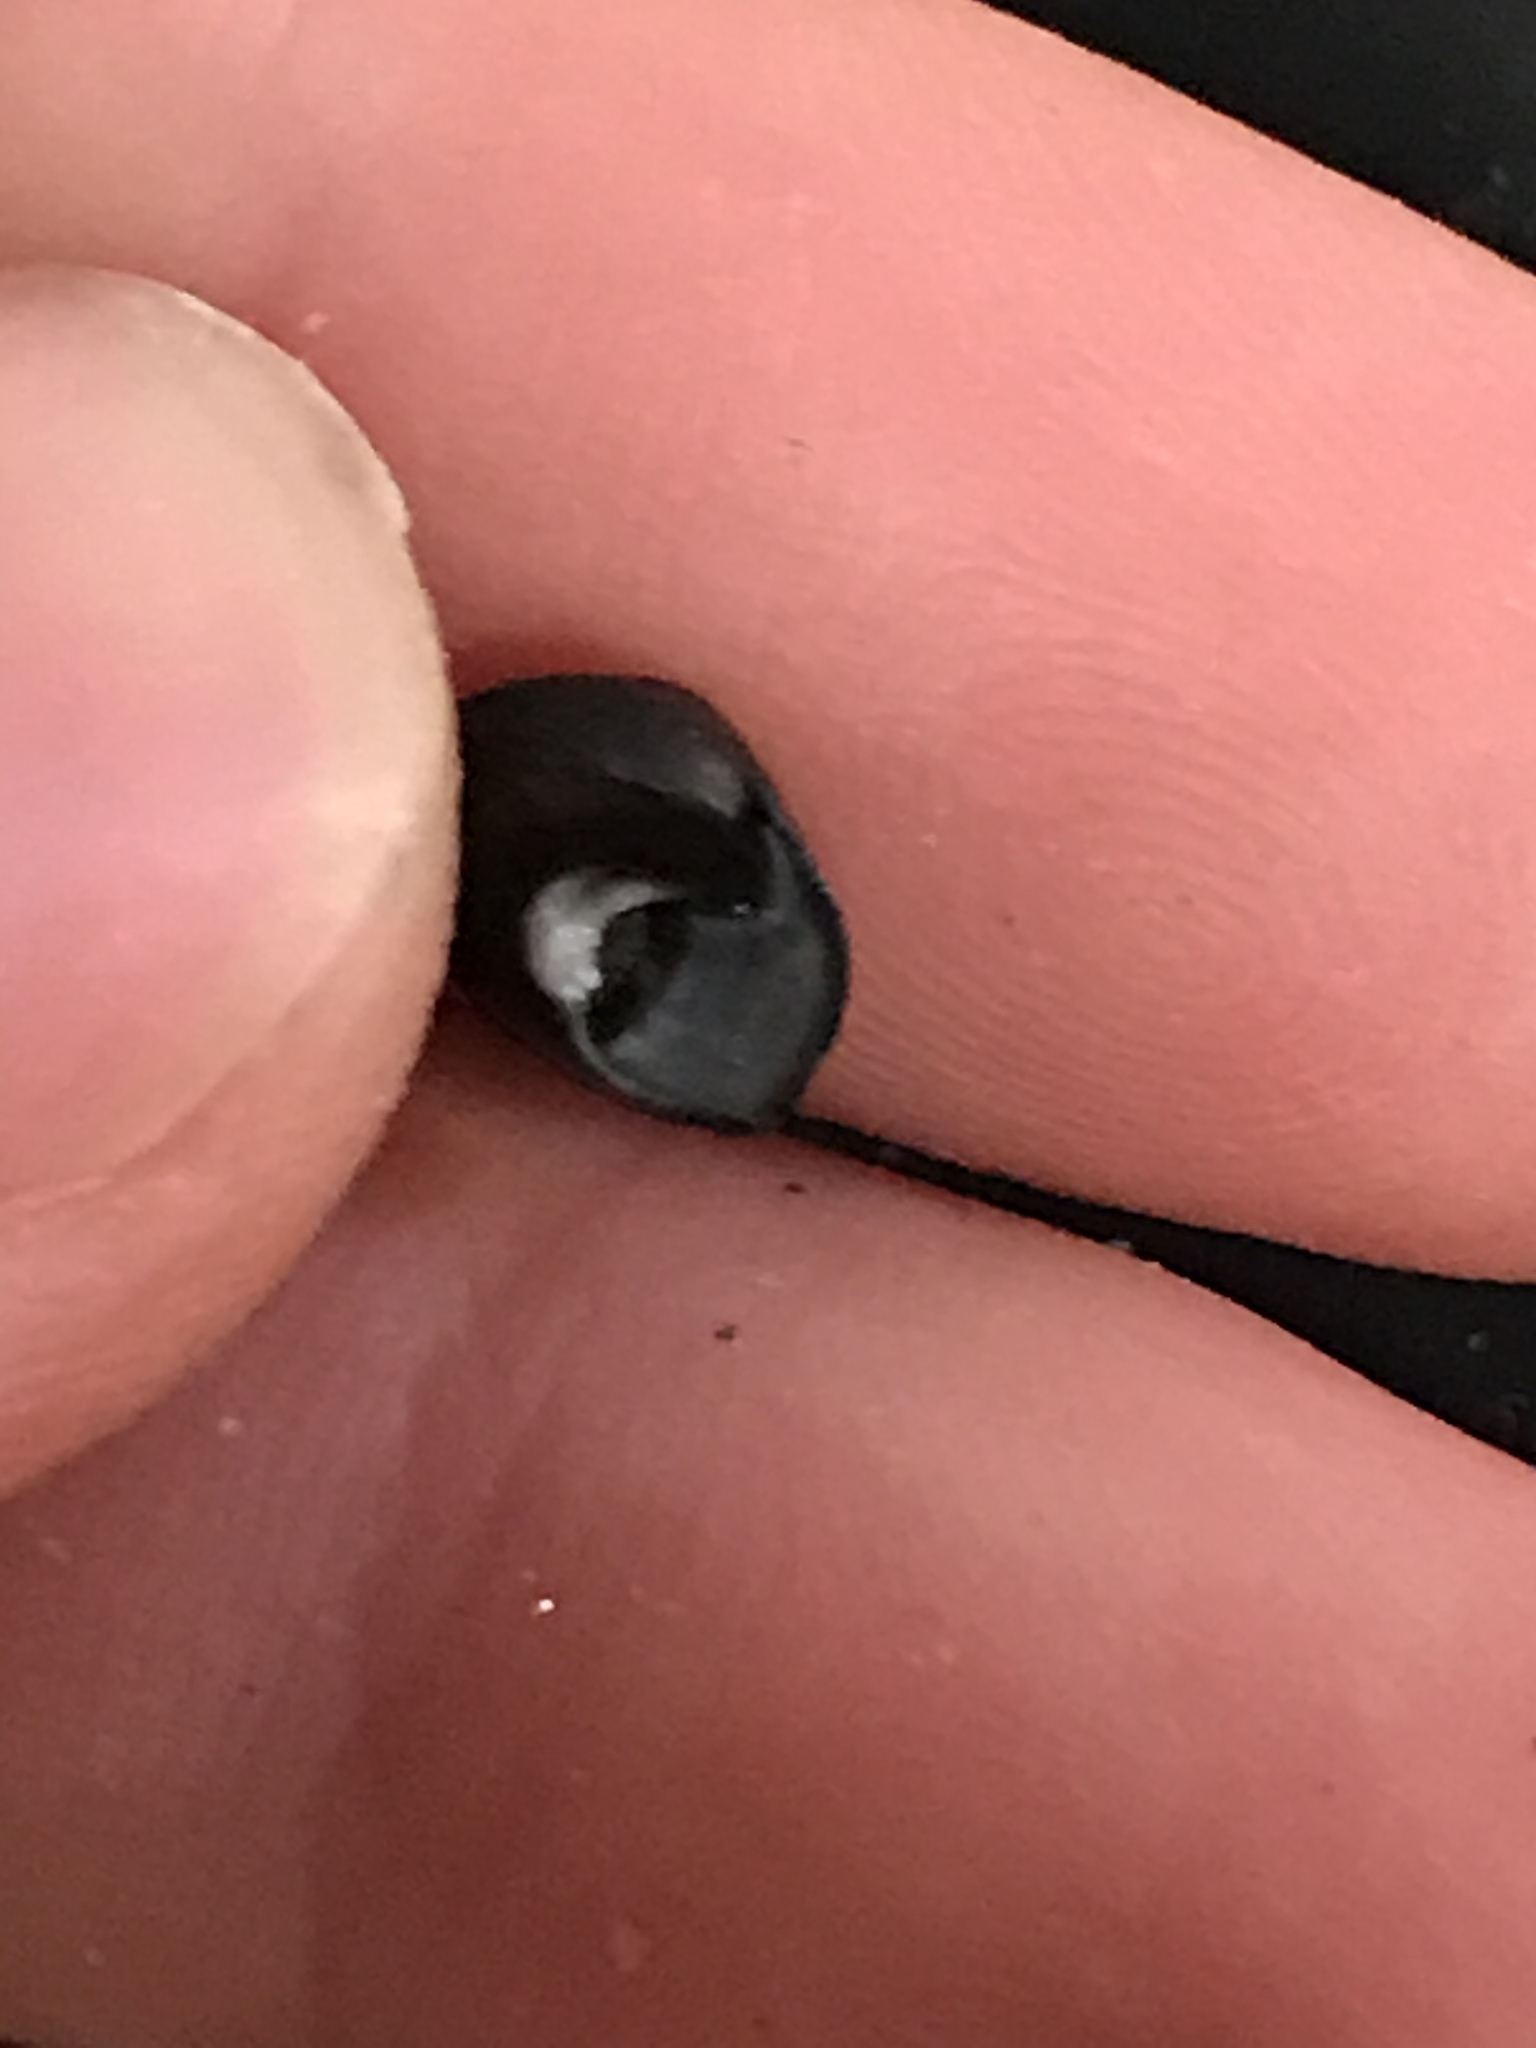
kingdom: Animalia
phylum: Mollusca
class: Gastropoda
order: Trochida
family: Tegulidae
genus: Tegula
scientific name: Tegula funebralis
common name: Black tegula
